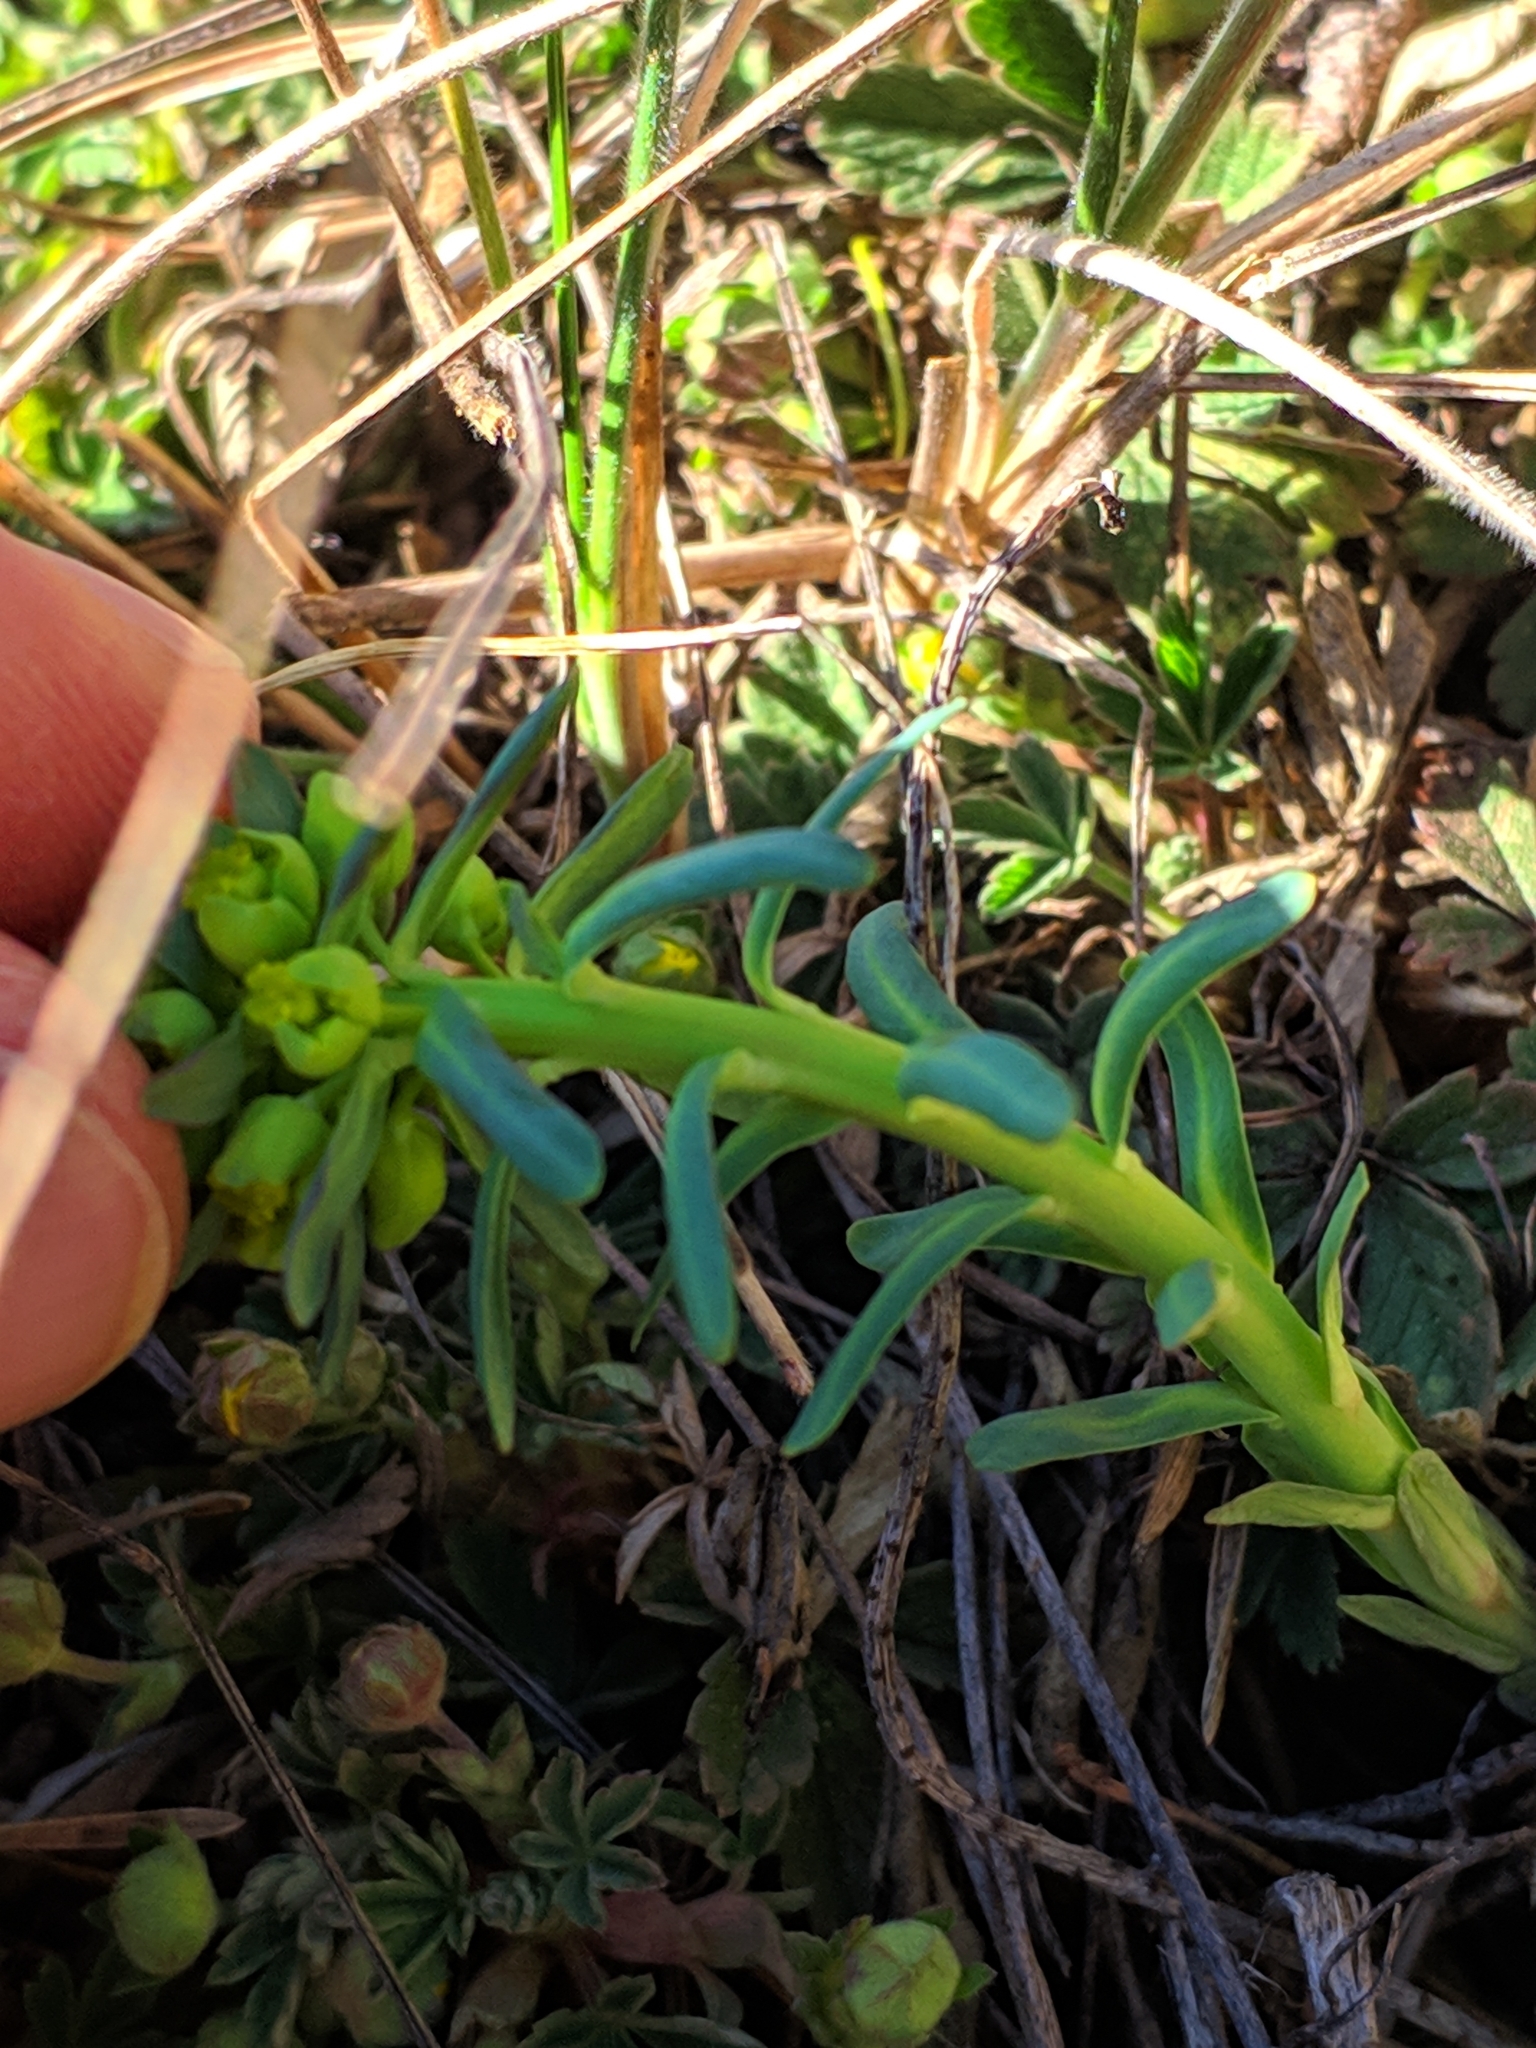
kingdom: Plantae
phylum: Tracheophyta
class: Magnoliopsida
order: Malpighiales
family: Euphorbiaceae
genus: Euphorbia
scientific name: Euphorbia cyparissias
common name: Cypress spurge
